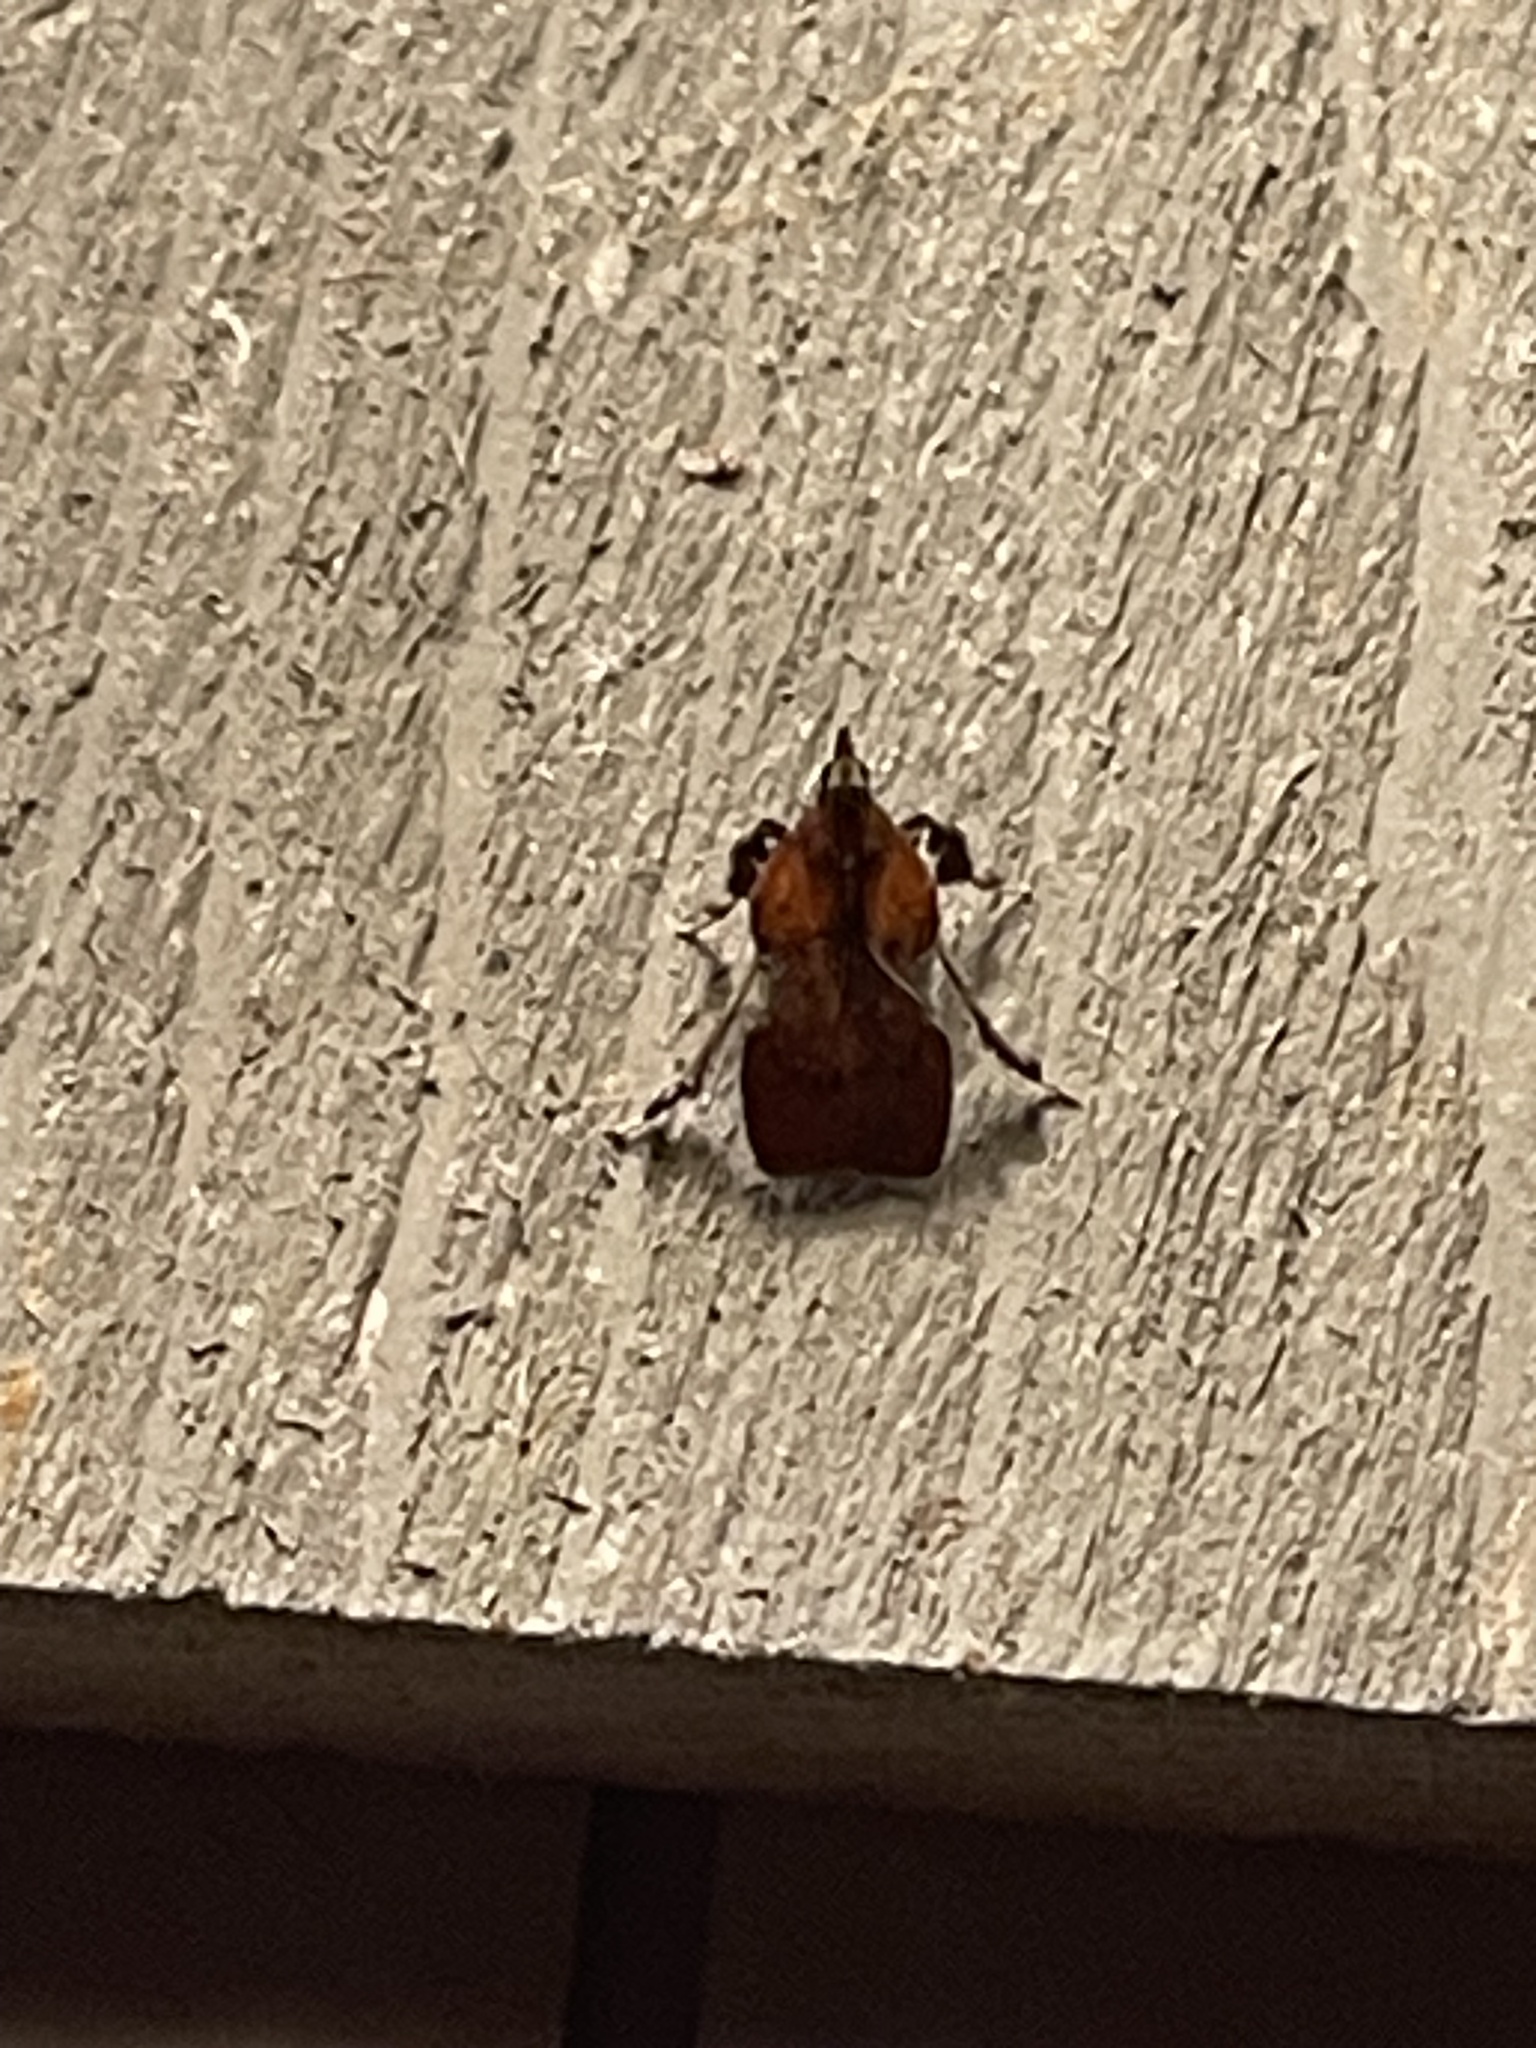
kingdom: Animalia
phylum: Arthropoda
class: Insecta
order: Lepidoptera
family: Pyralidae
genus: Galasa
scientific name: Galasa nigrinodis
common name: Boxwood leaftier moth
